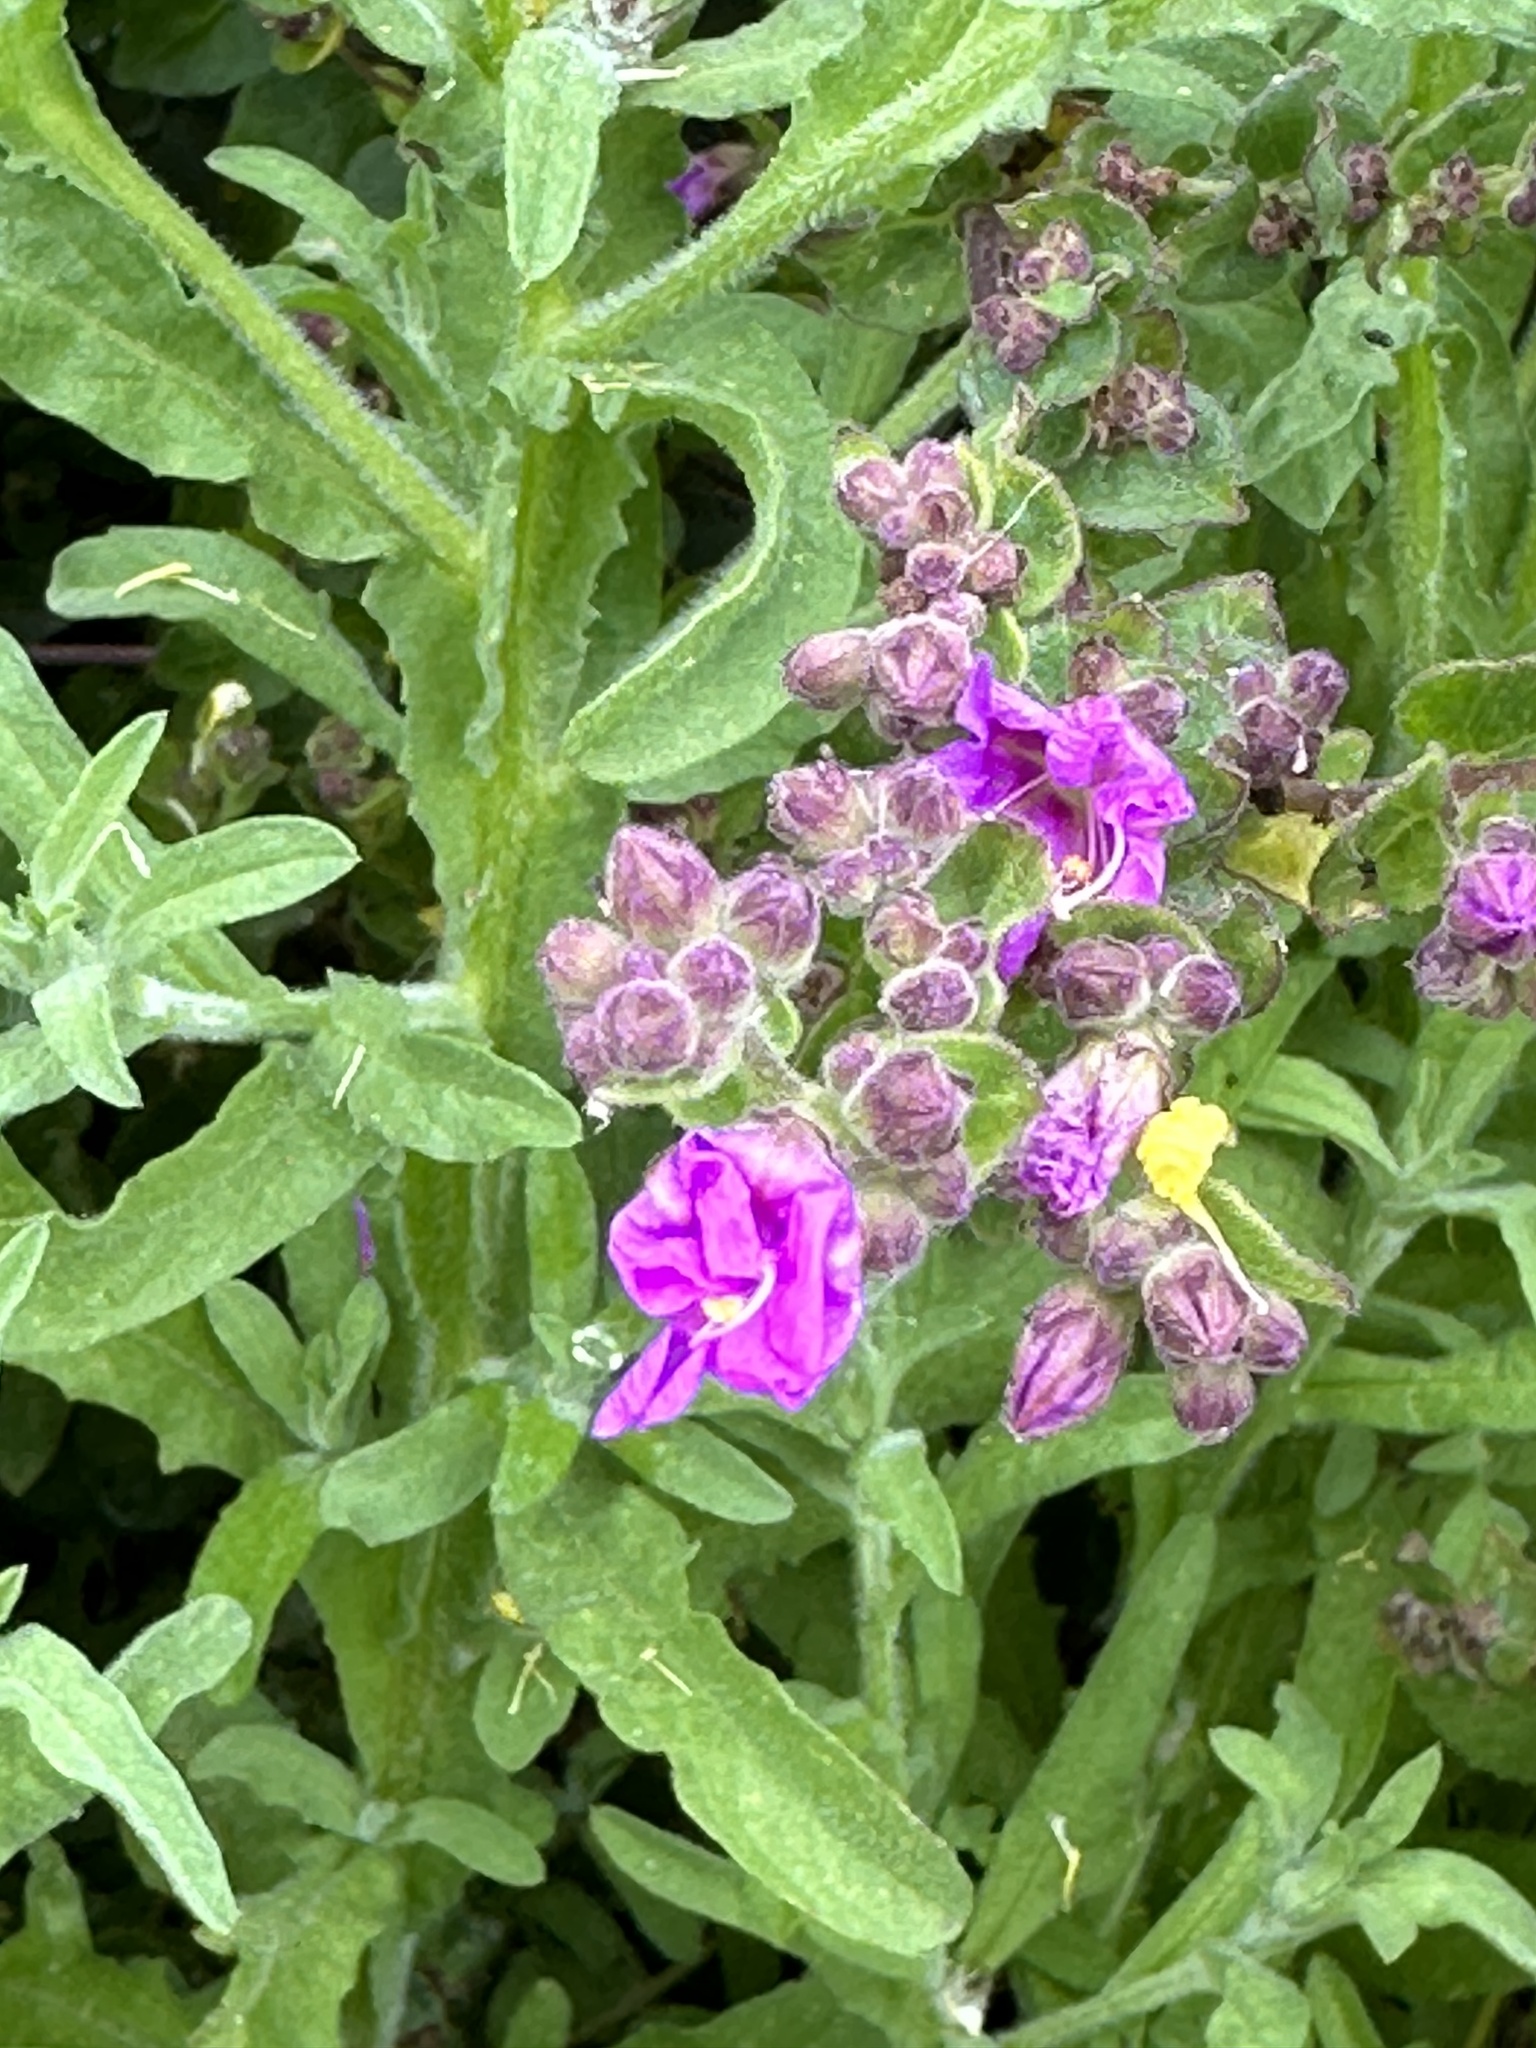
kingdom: Plantae
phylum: Tracheophyta
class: Magnoliopsida
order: Caryophyllales
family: Nyctaginaceae
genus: Mirabilis
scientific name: Mirabilis laevis
